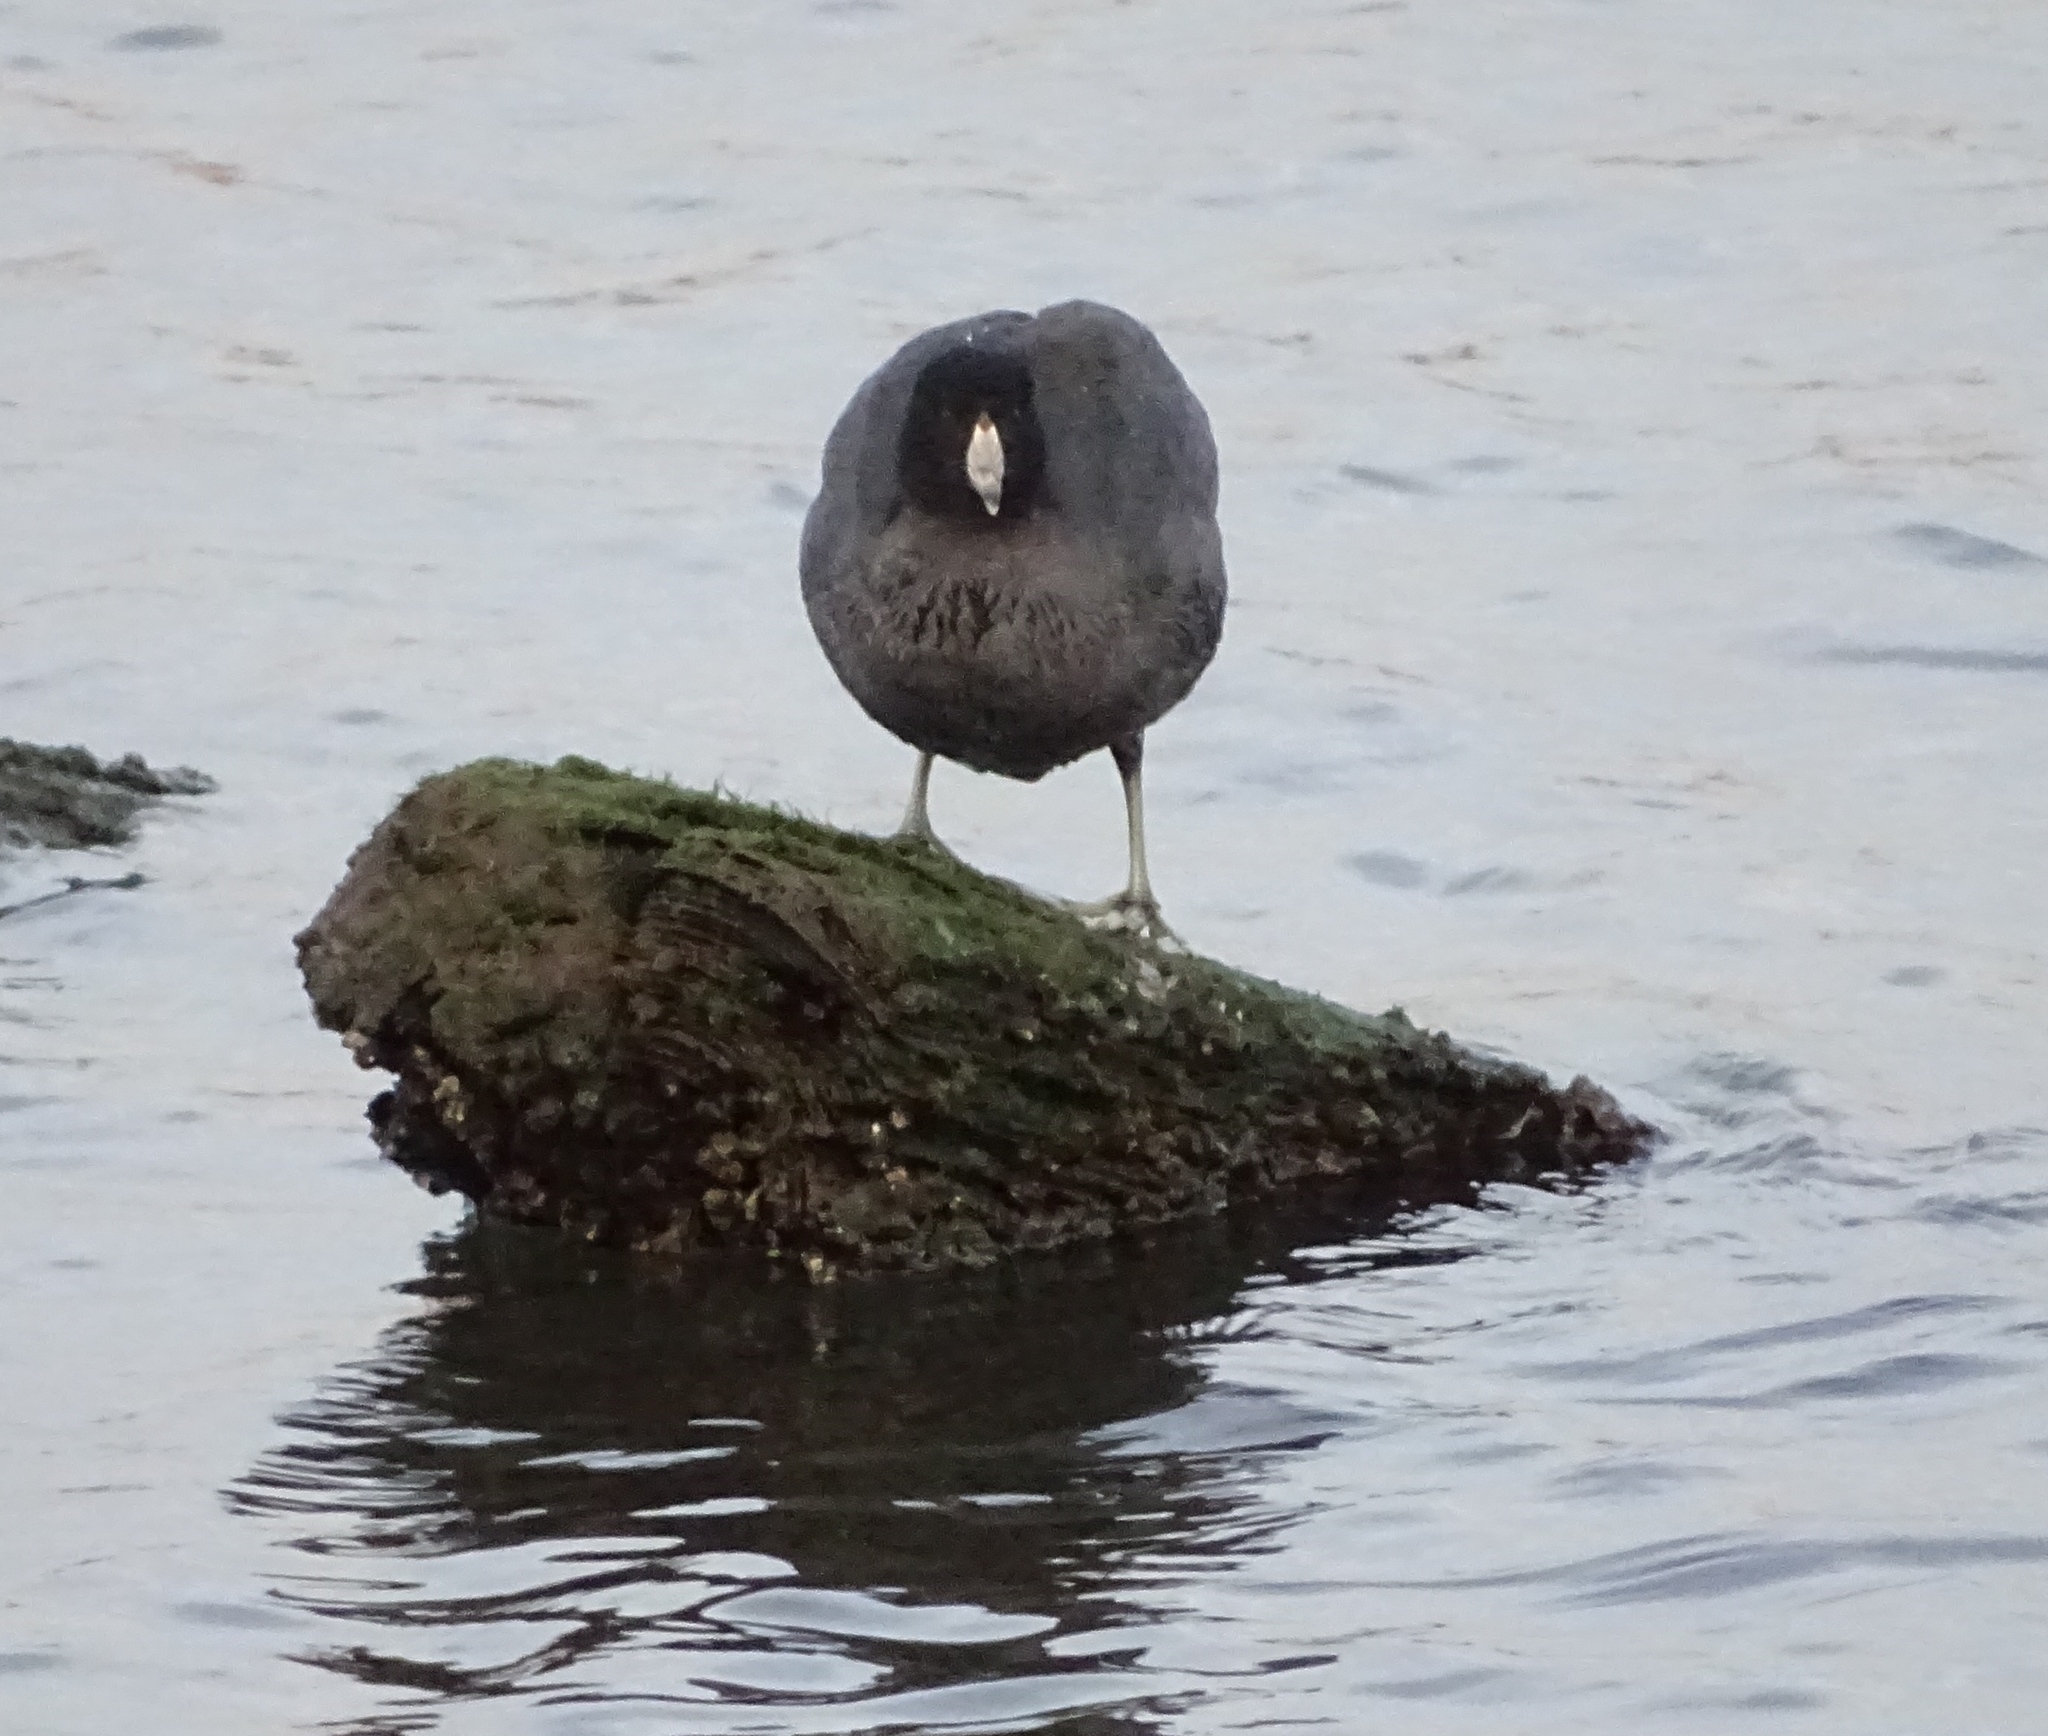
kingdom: Animalia
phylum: Chordata
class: Aves
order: Gruiformes
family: Rallidae
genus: Fulica
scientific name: Fulica americana
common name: American coot
